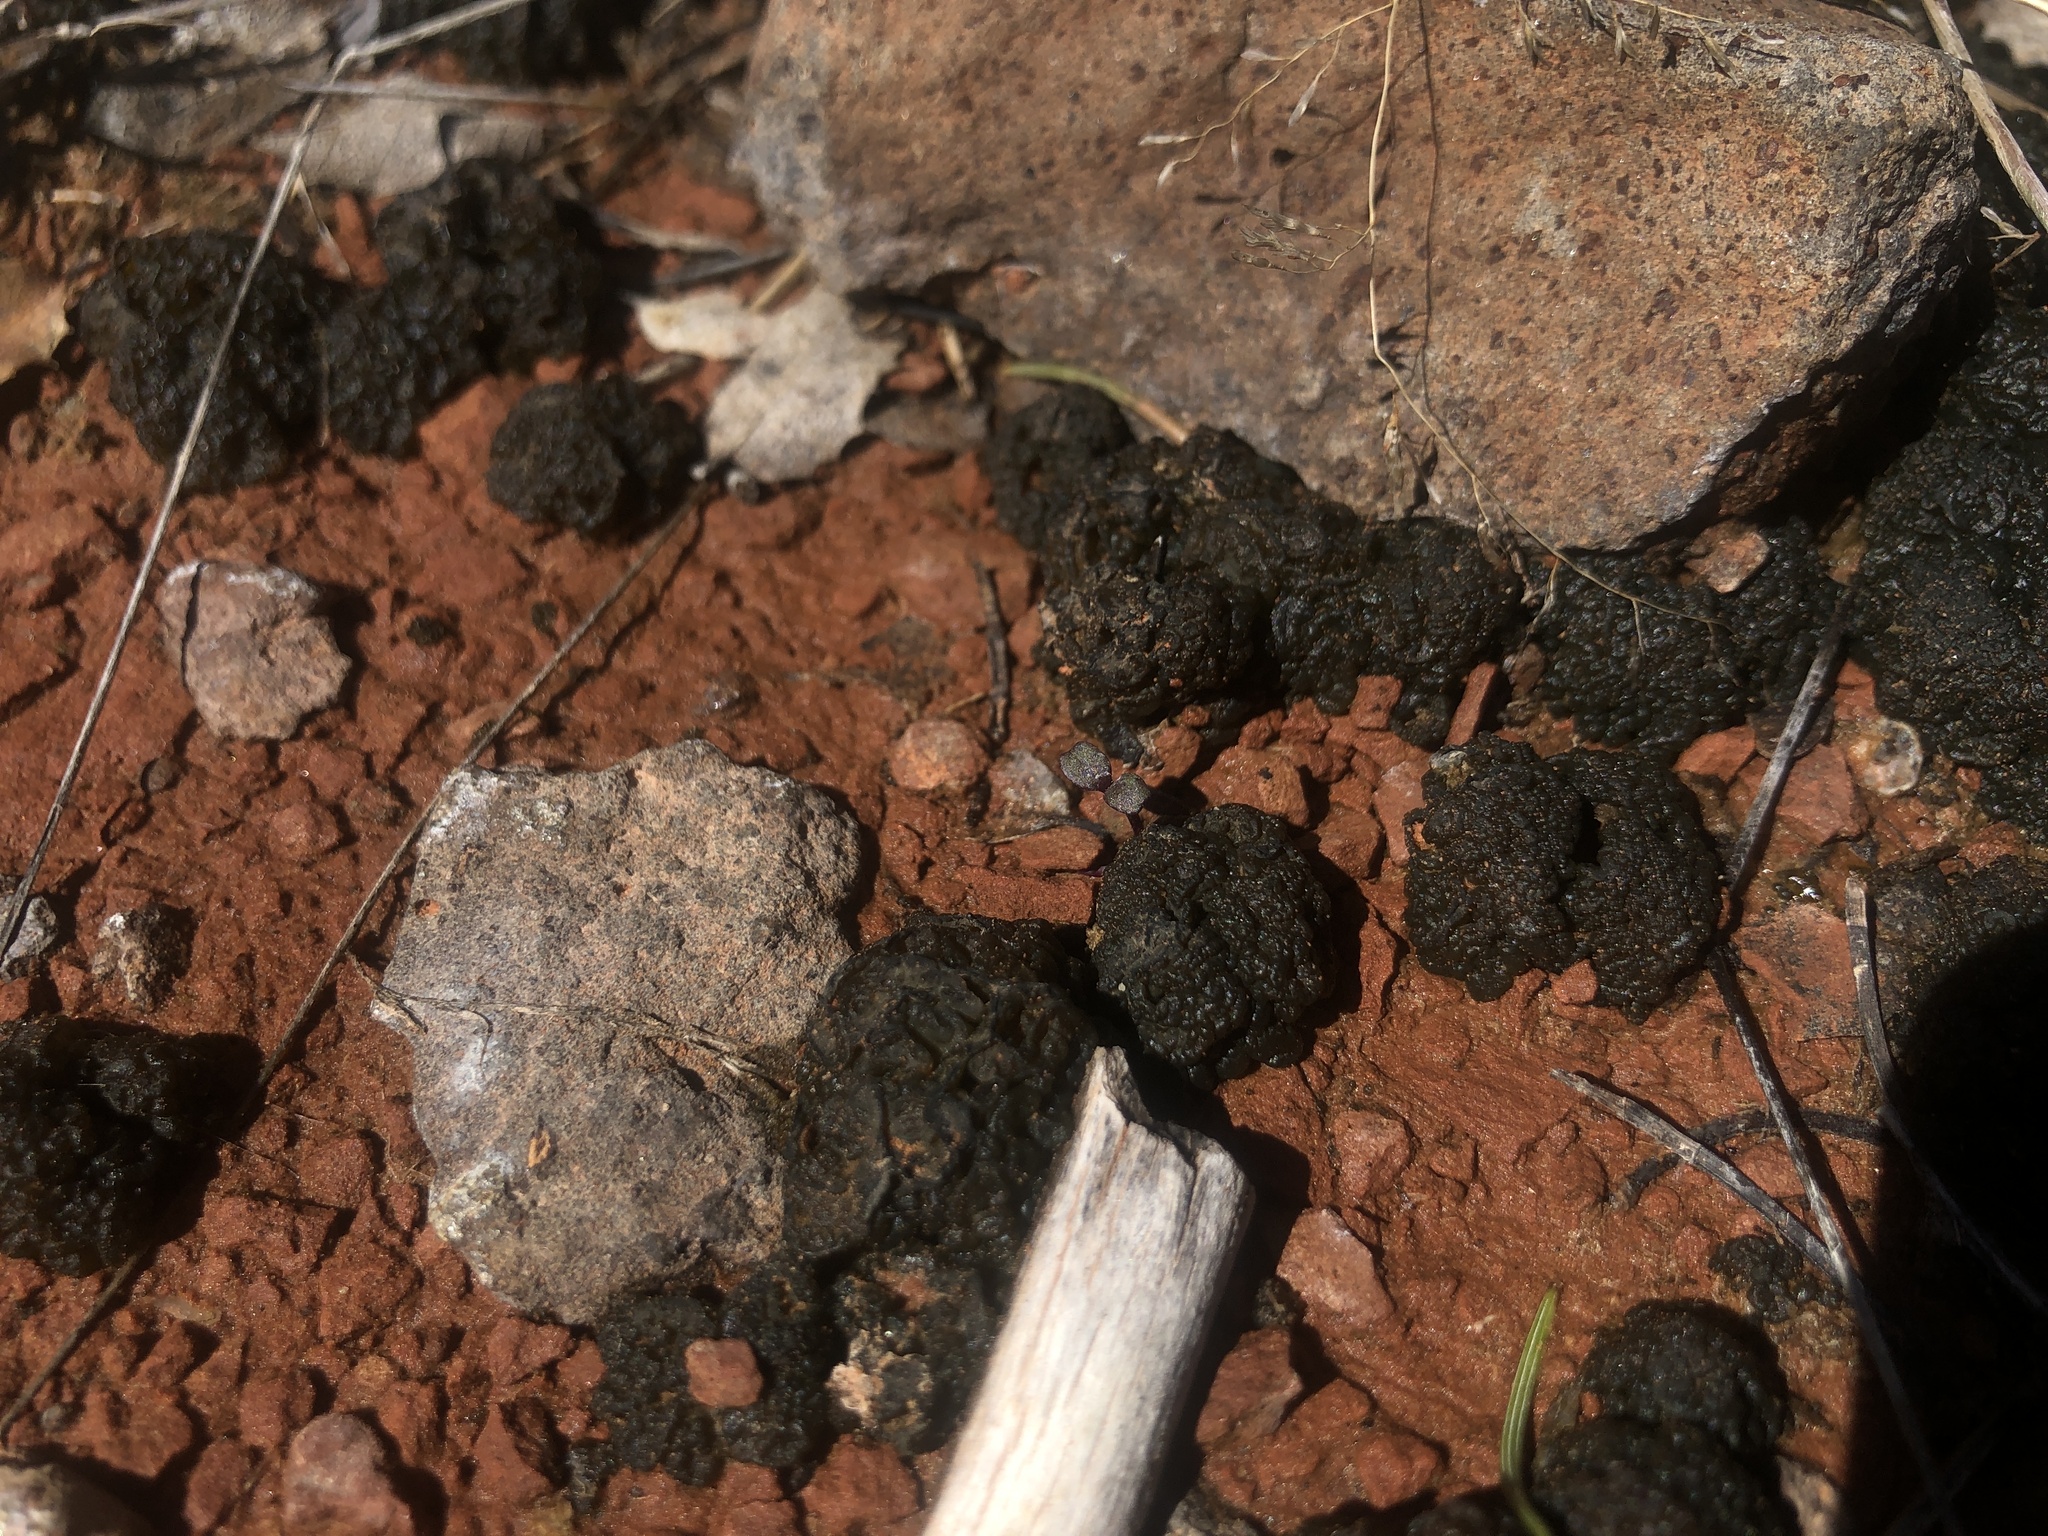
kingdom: Bacteria
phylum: Cyanobacteria
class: Cyanobacteriia
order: Cyanobacteriales
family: Nostocaceae
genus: Nostoc
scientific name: Nostoc commune
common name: Star jelly
